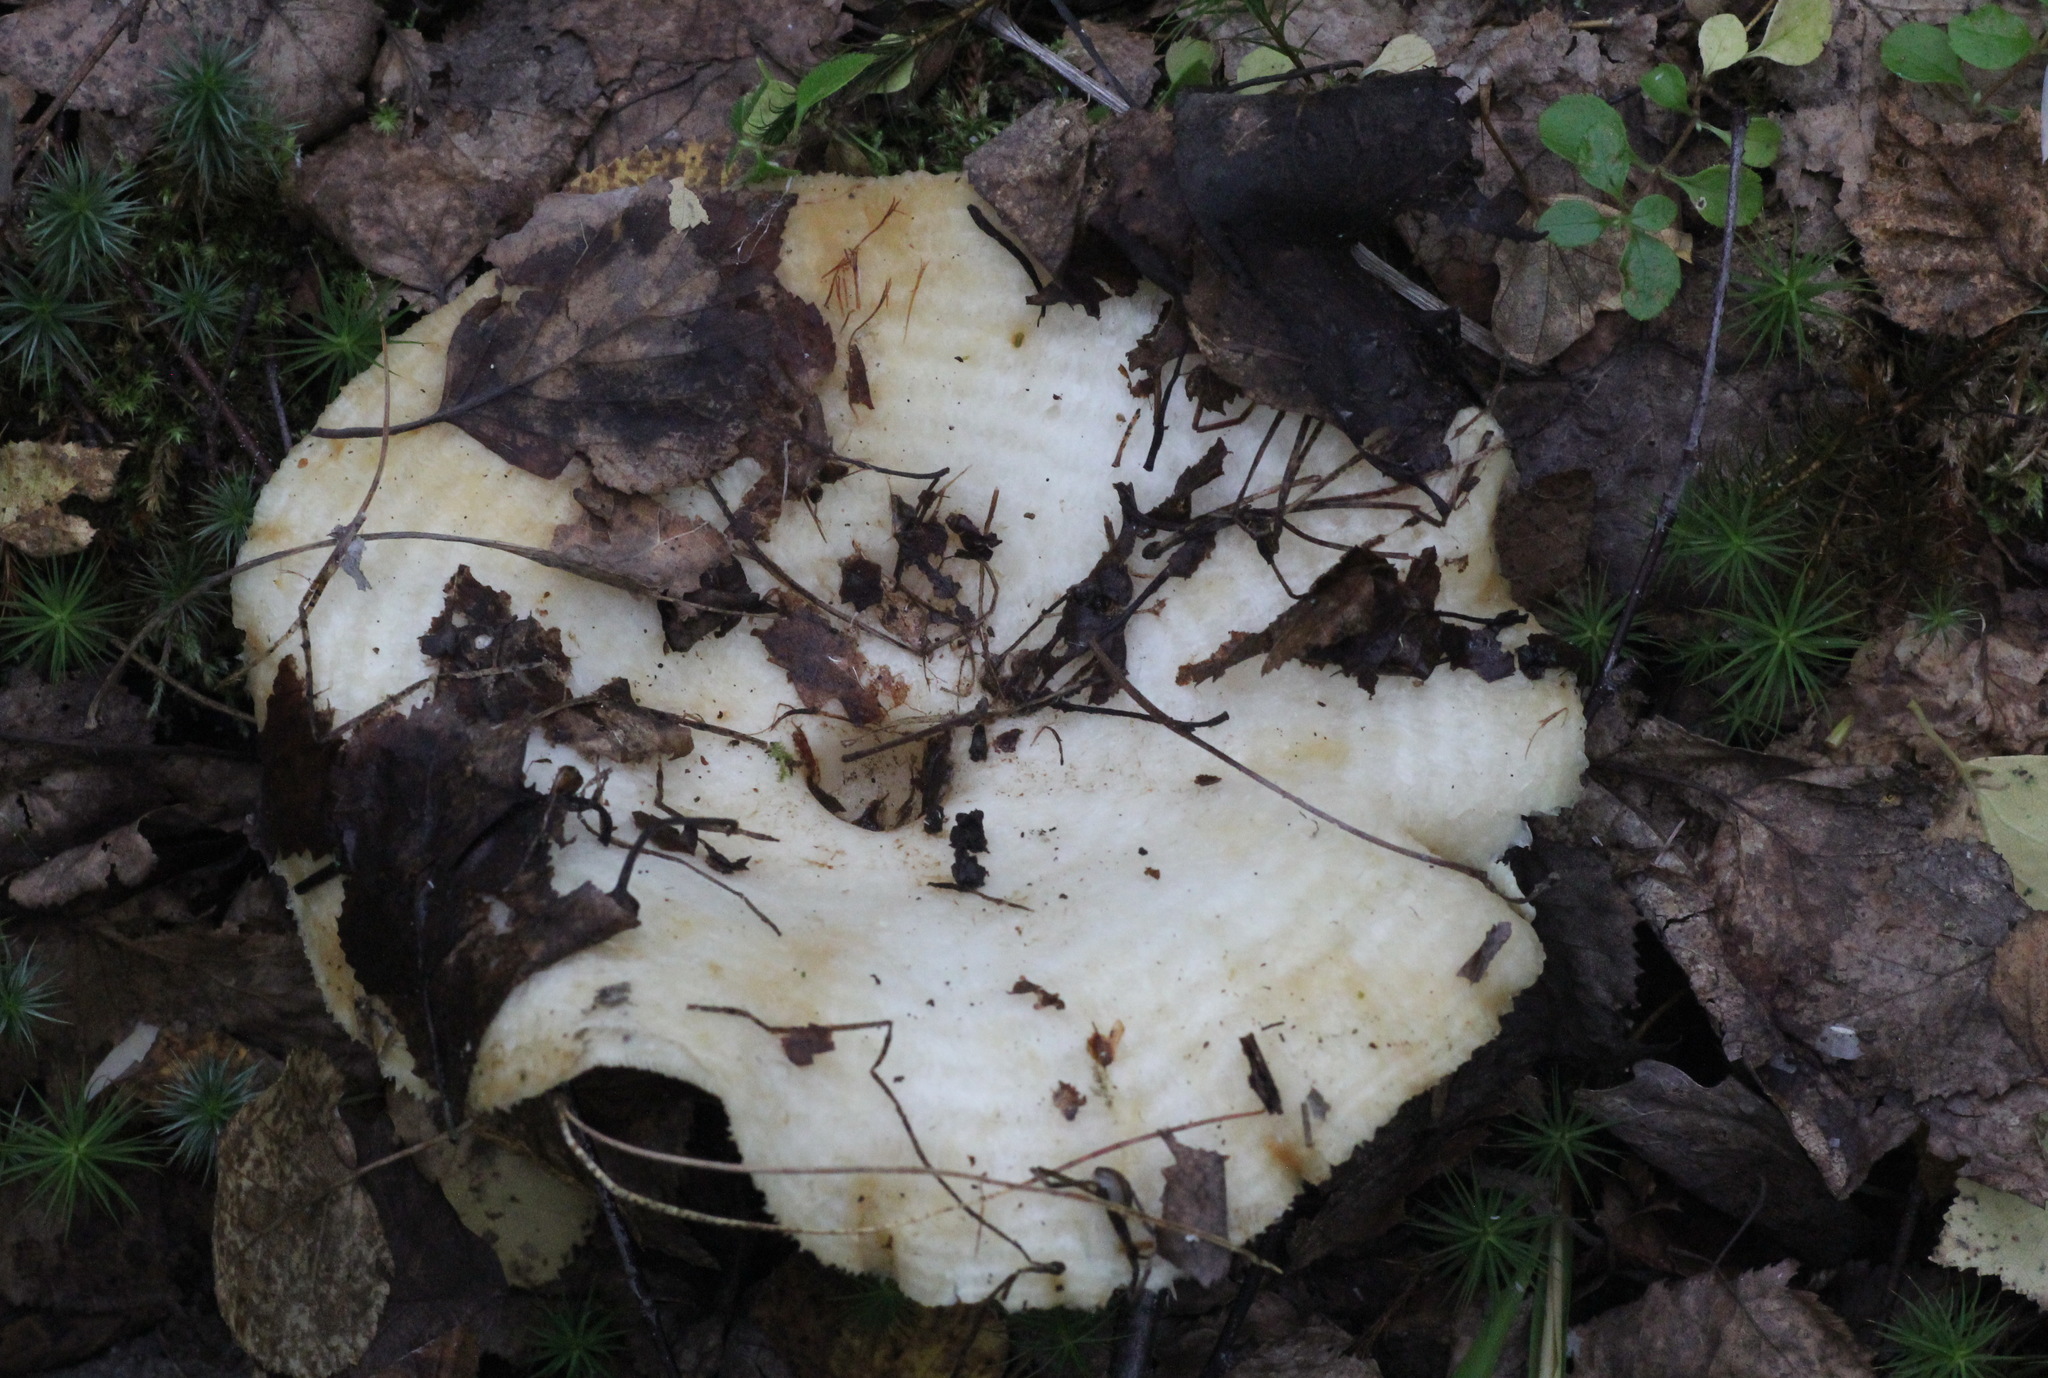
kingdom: Fungi
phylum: Basidiomycota
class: Agaricomycetes
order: Russulales
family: Russulaceae
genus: Lactarius
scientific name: Lactarius aquizonatus
